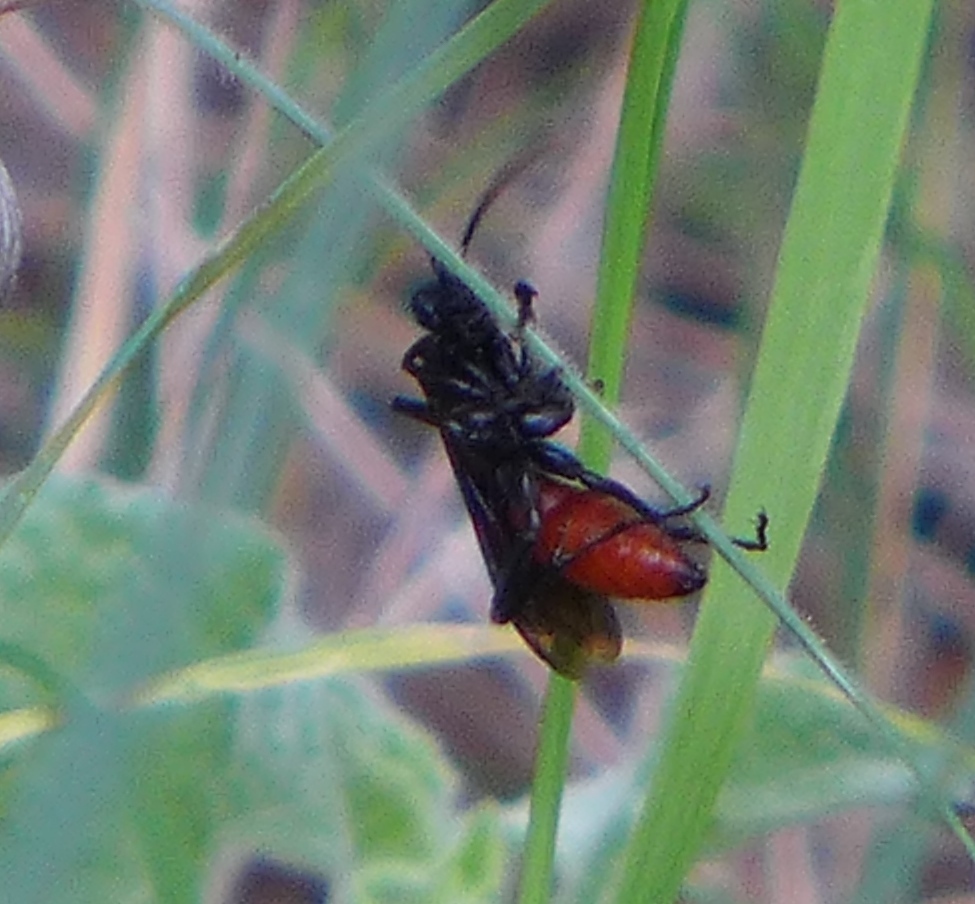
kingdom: Animalia
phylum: Arthropoda
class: Insecta
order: Hymenoptera
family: Pompilidae
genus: Priocnemis
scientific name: Priocnemis oregona
